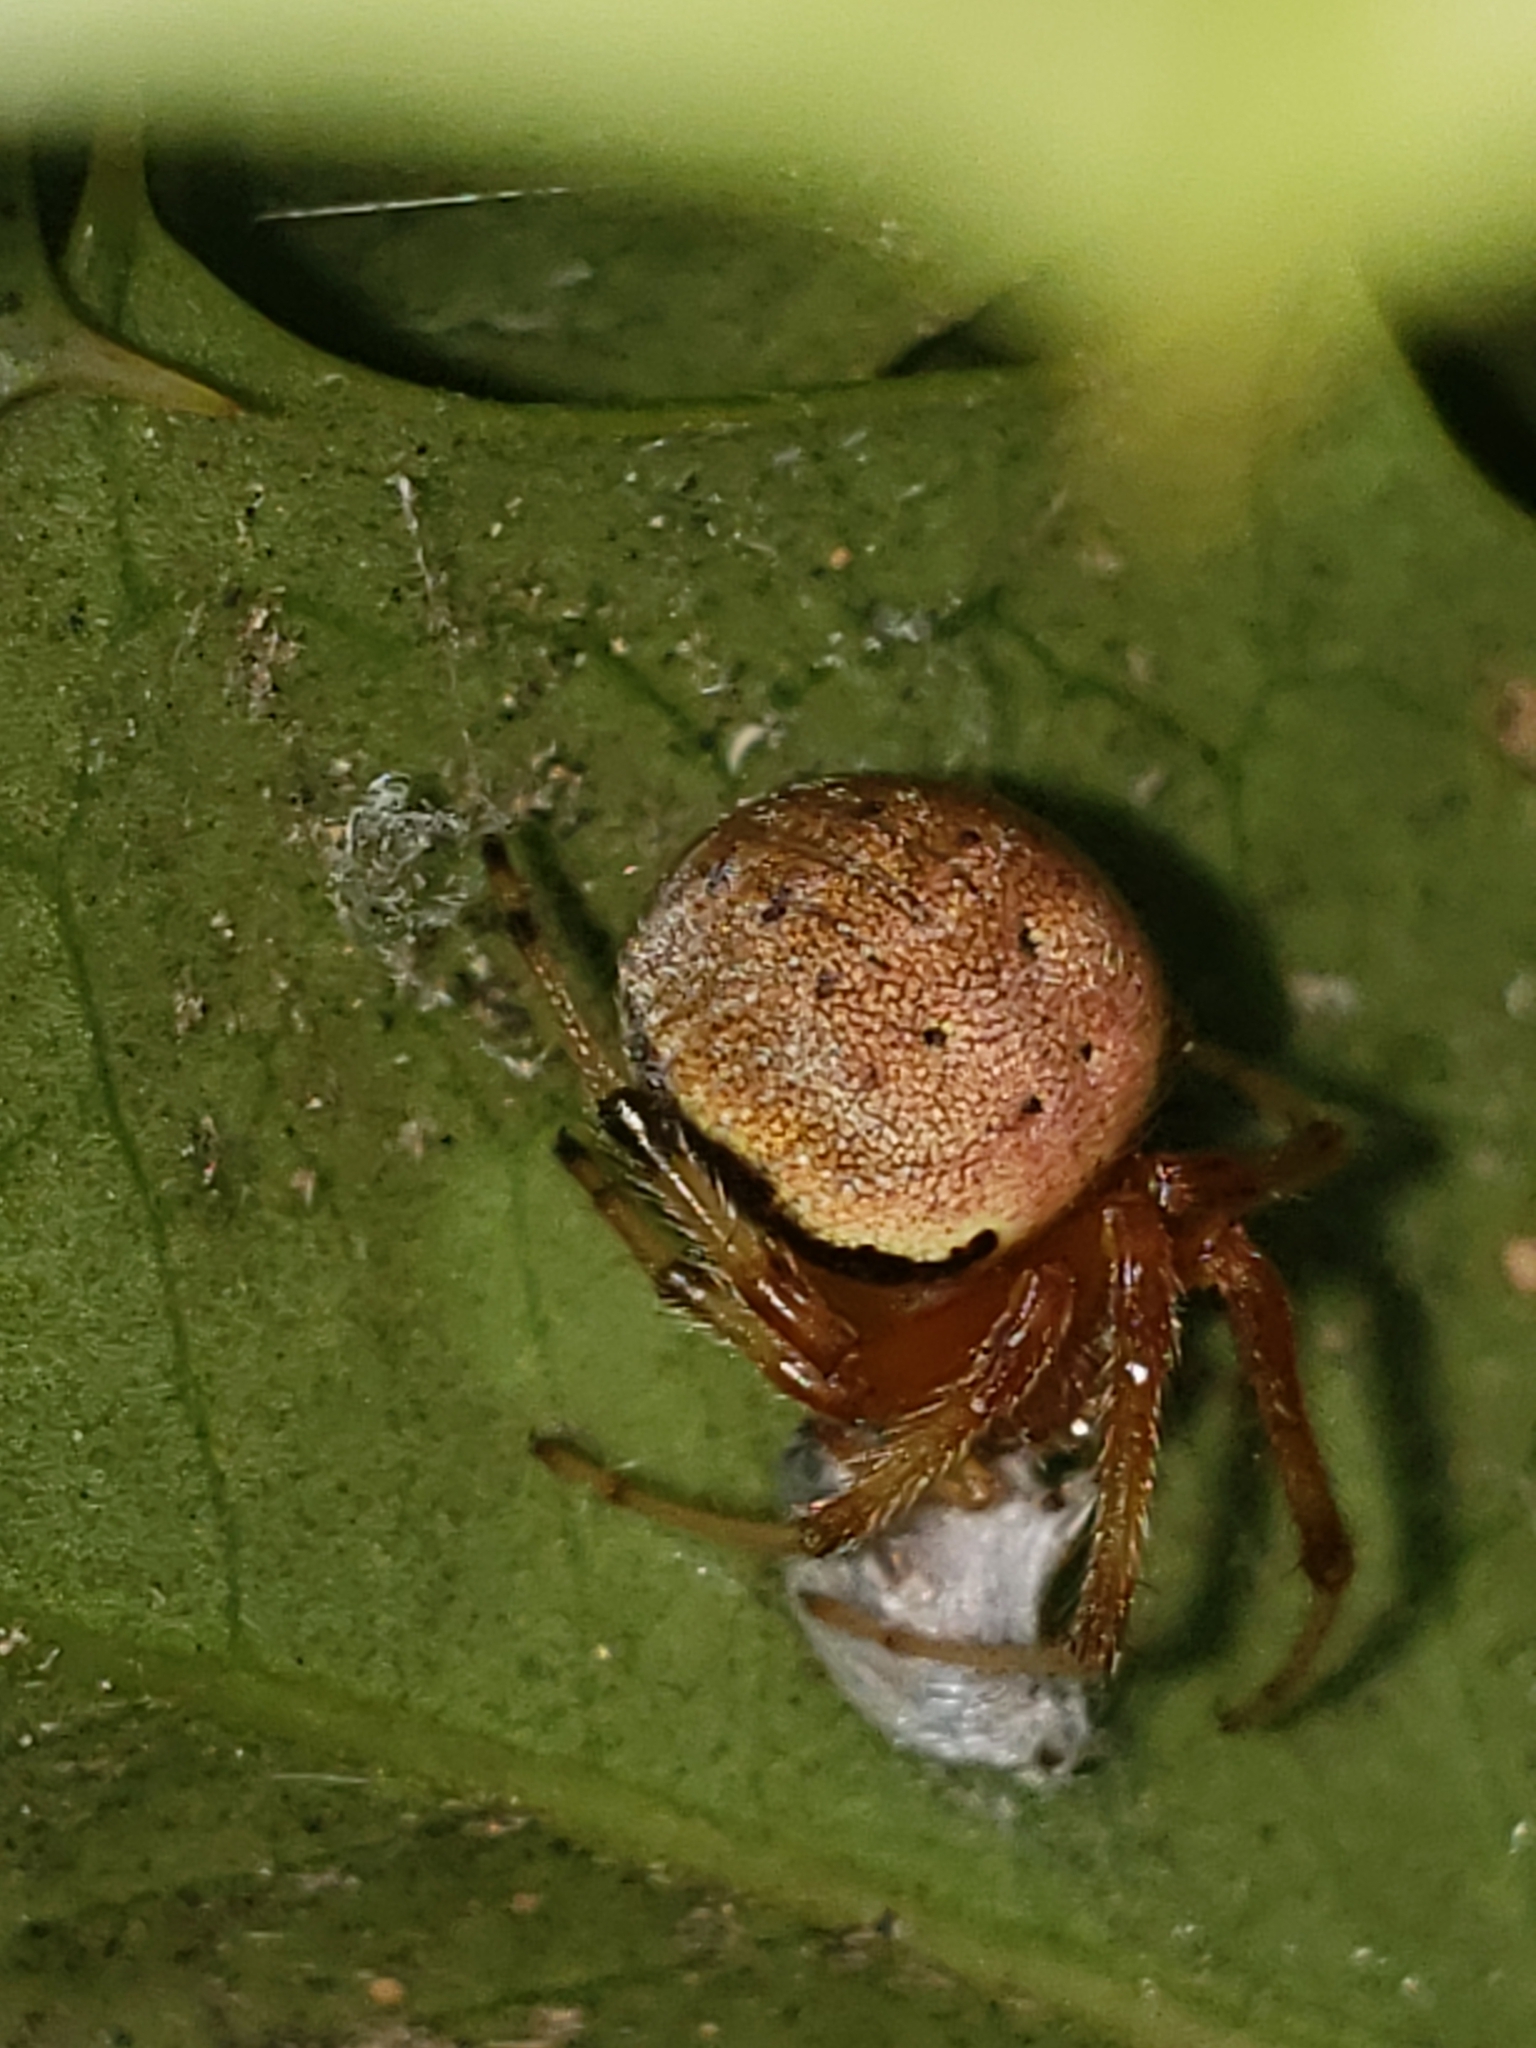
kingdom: Animalia
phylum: Arthropoda
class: Arachnida
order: Araneae
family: Araneidae
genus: Araneus
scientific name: Araneus thaddeus
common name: Lattice orbweaver
